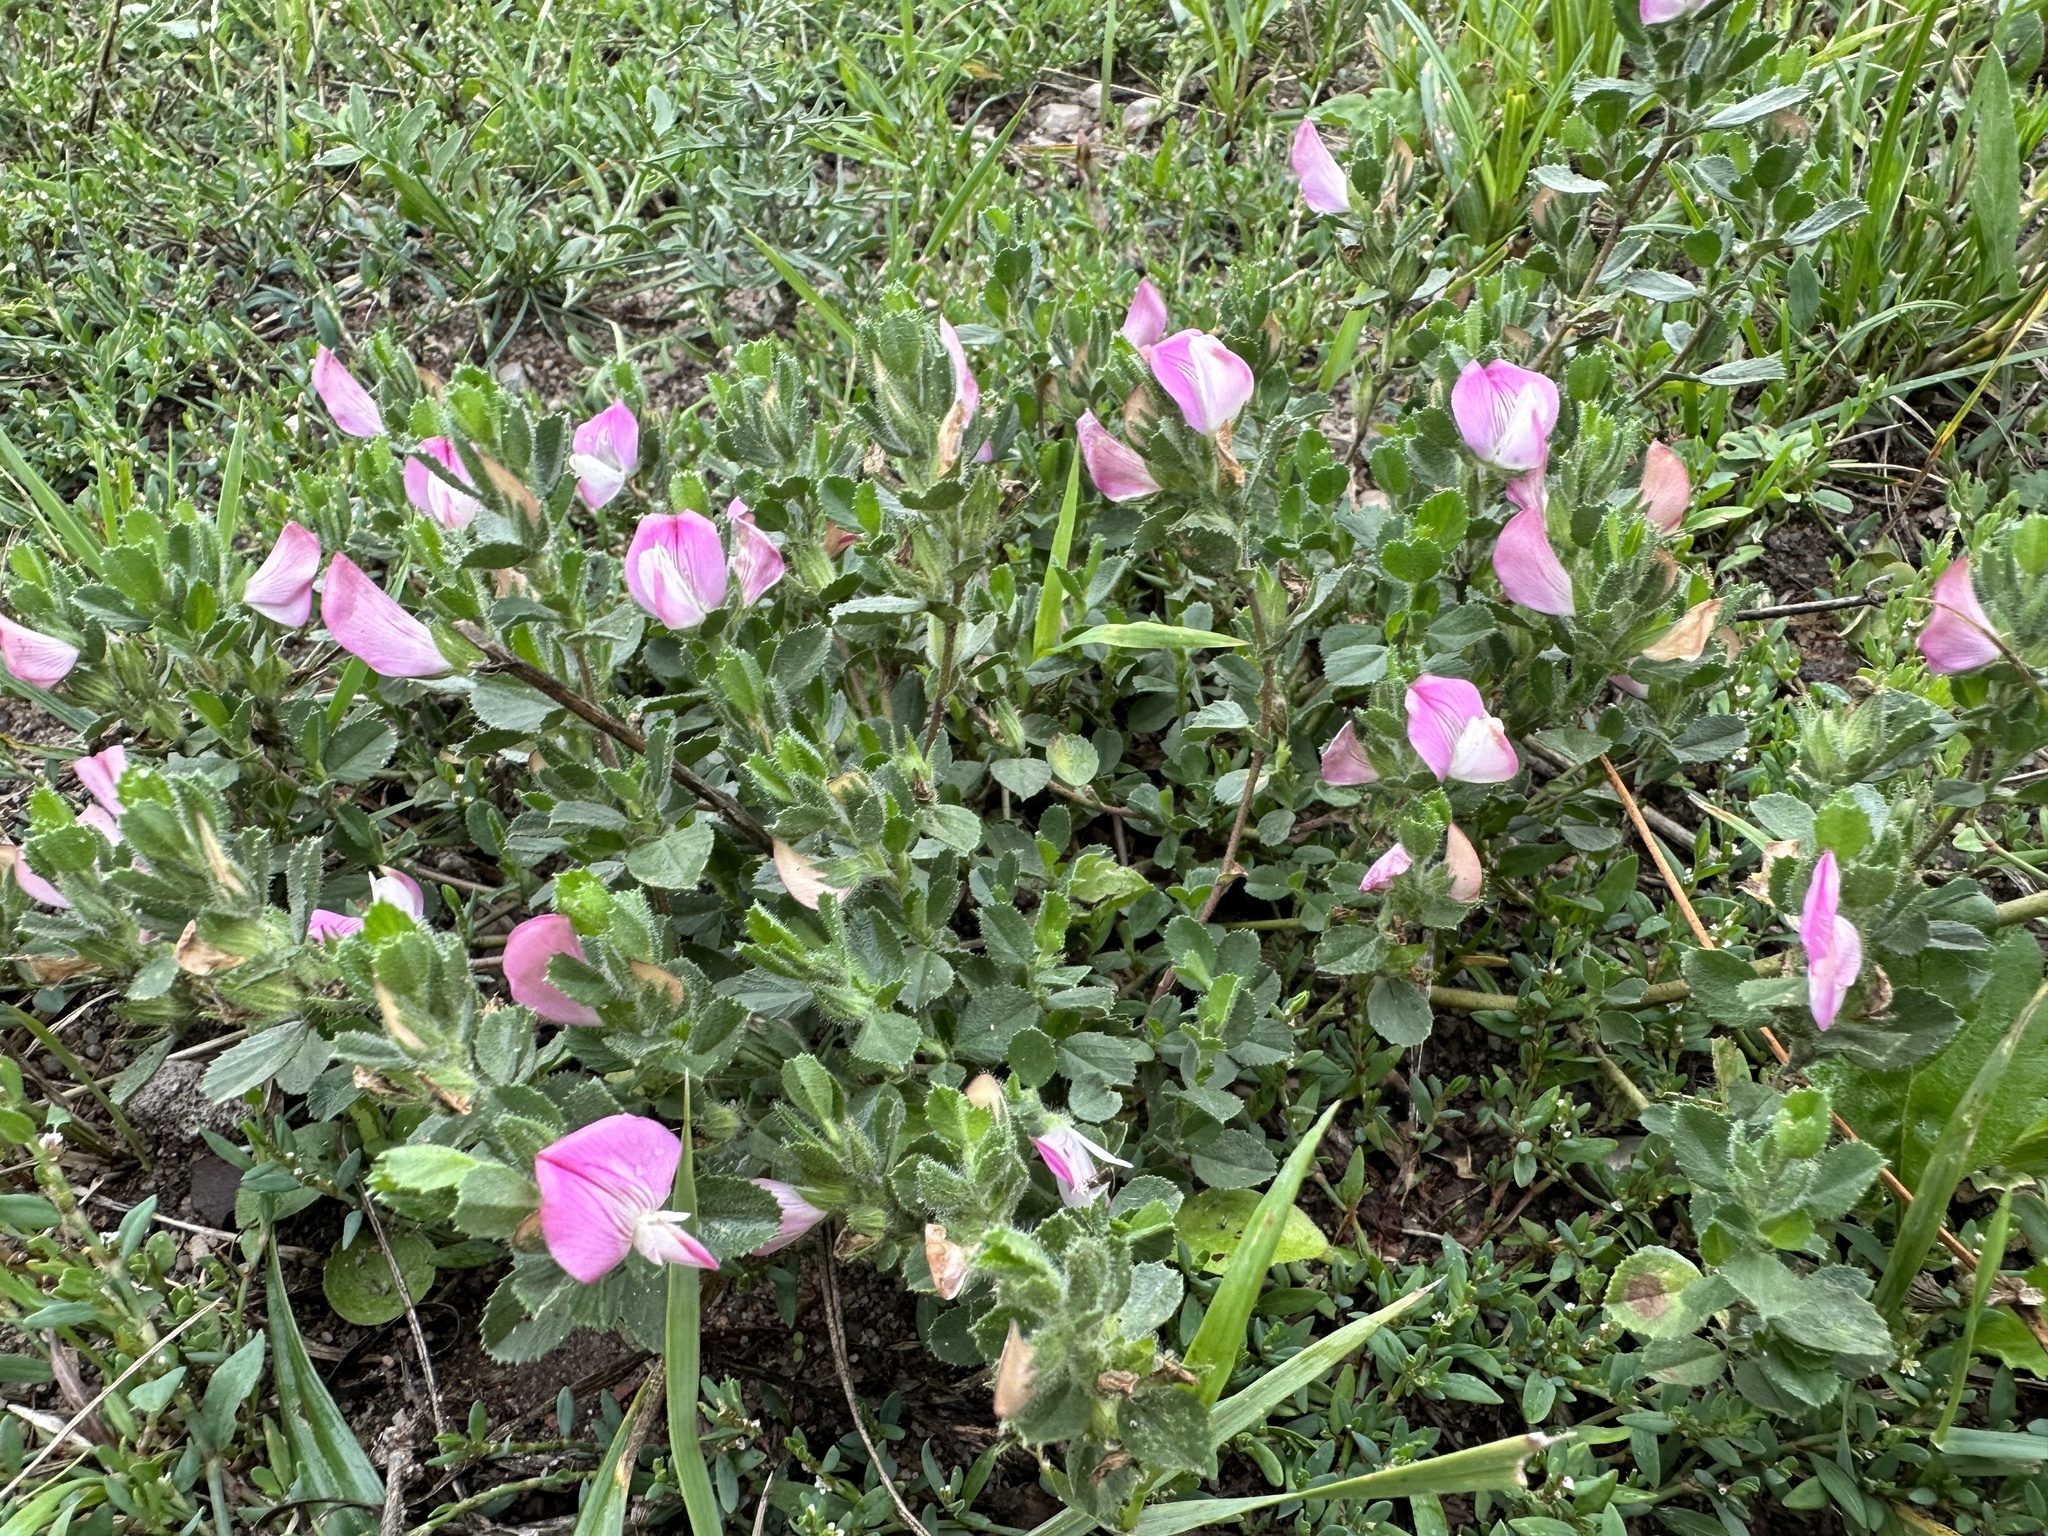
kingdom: Plantae
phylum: Tracheophyta
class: Magnoliopsida
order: Fabales
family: Fabaceae
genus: Ononis
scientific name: Ononis spinosa
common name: Spiny restharrow
